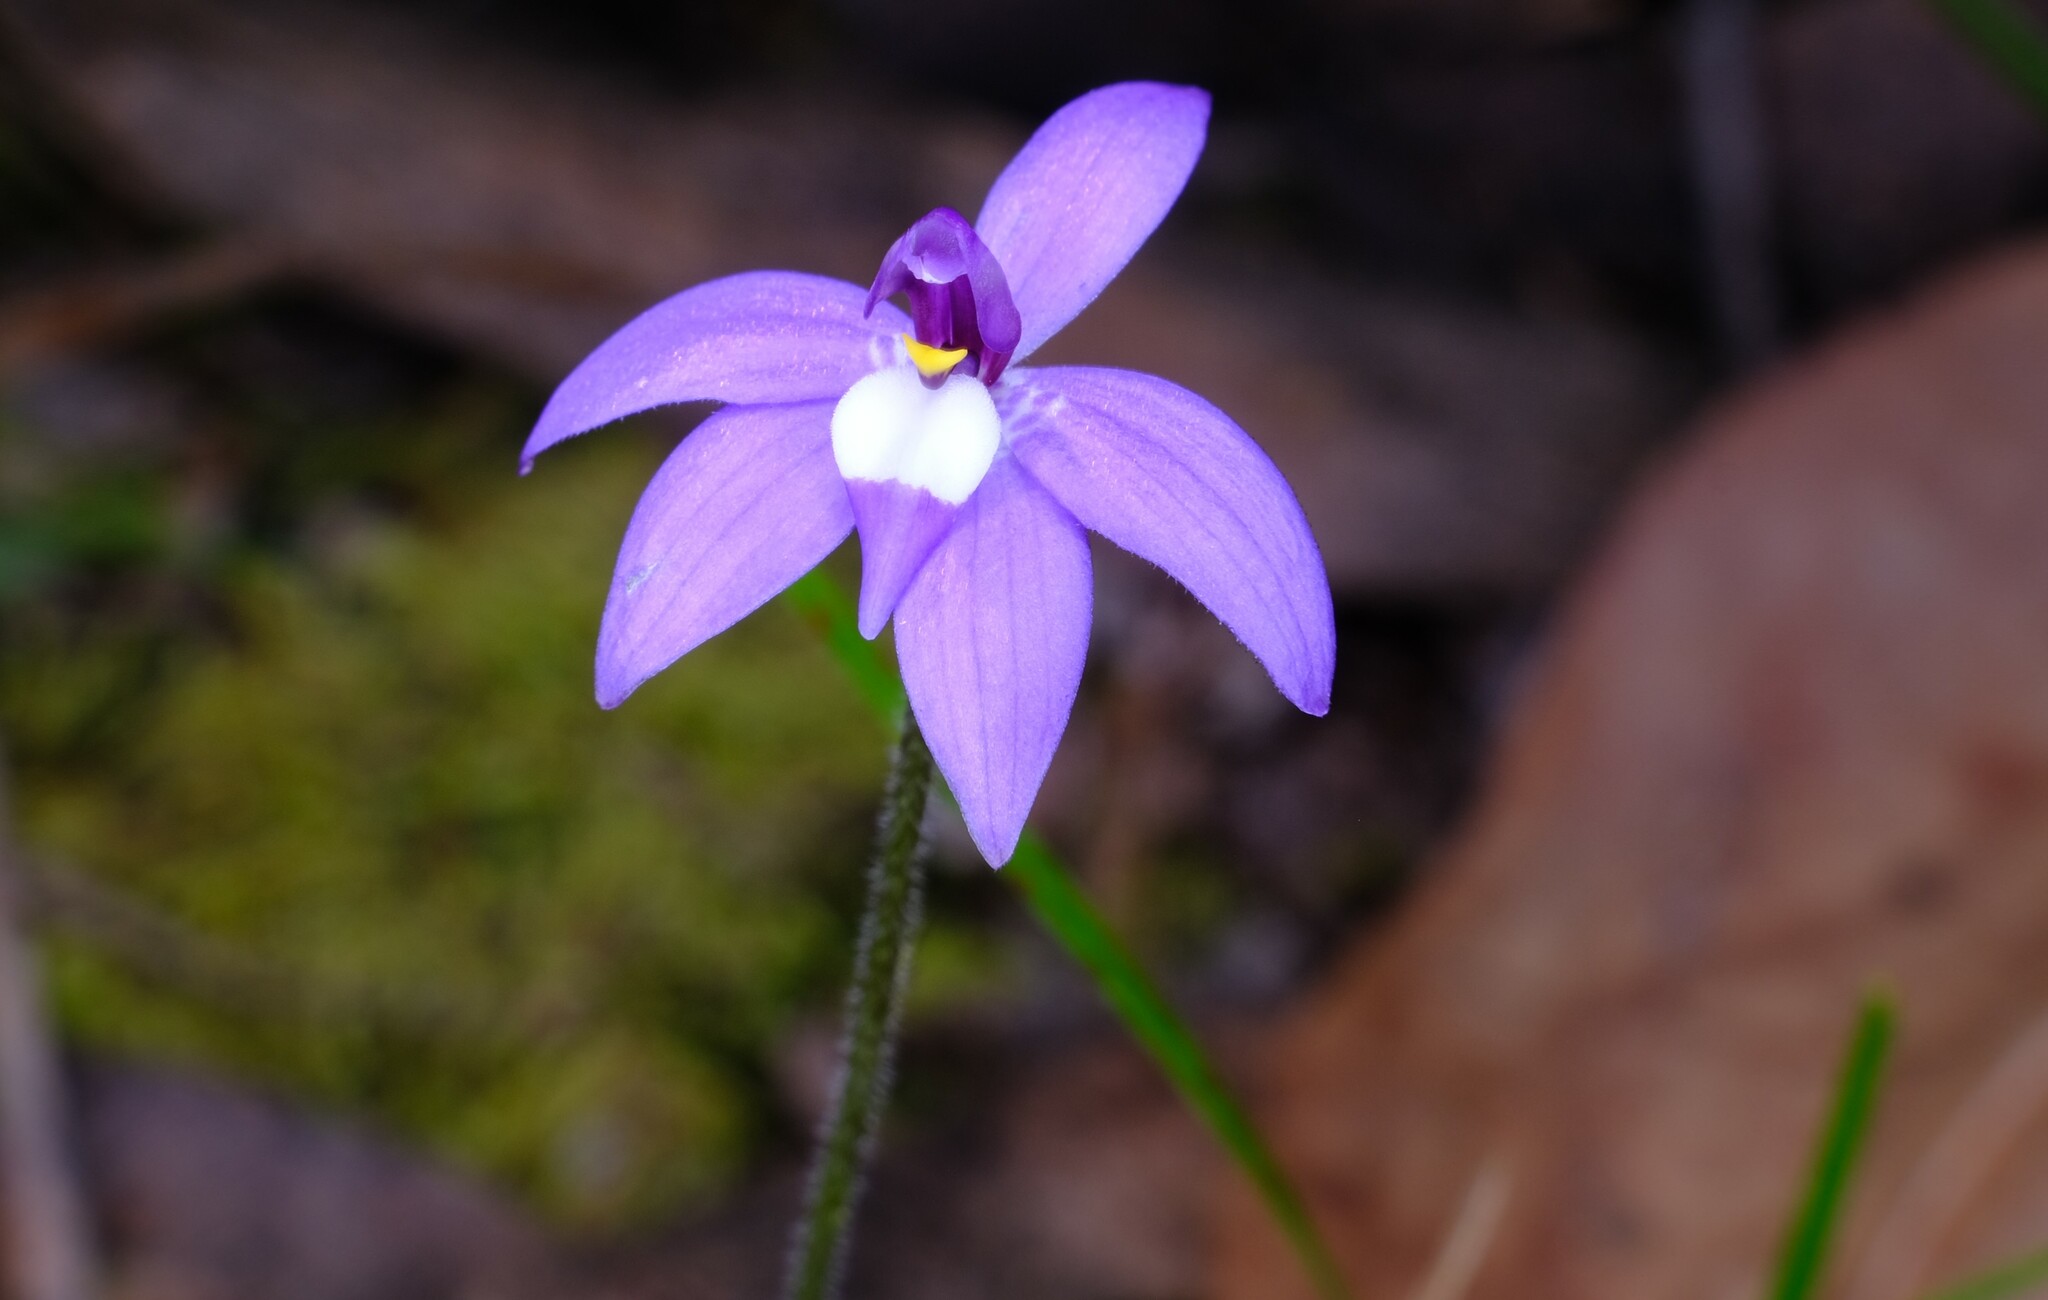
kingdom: Plantae
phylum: Tracheophyta
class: Liliopsida
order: Asparagales
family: Orchidaceae
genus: Caladenia
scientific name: Caladenia major
